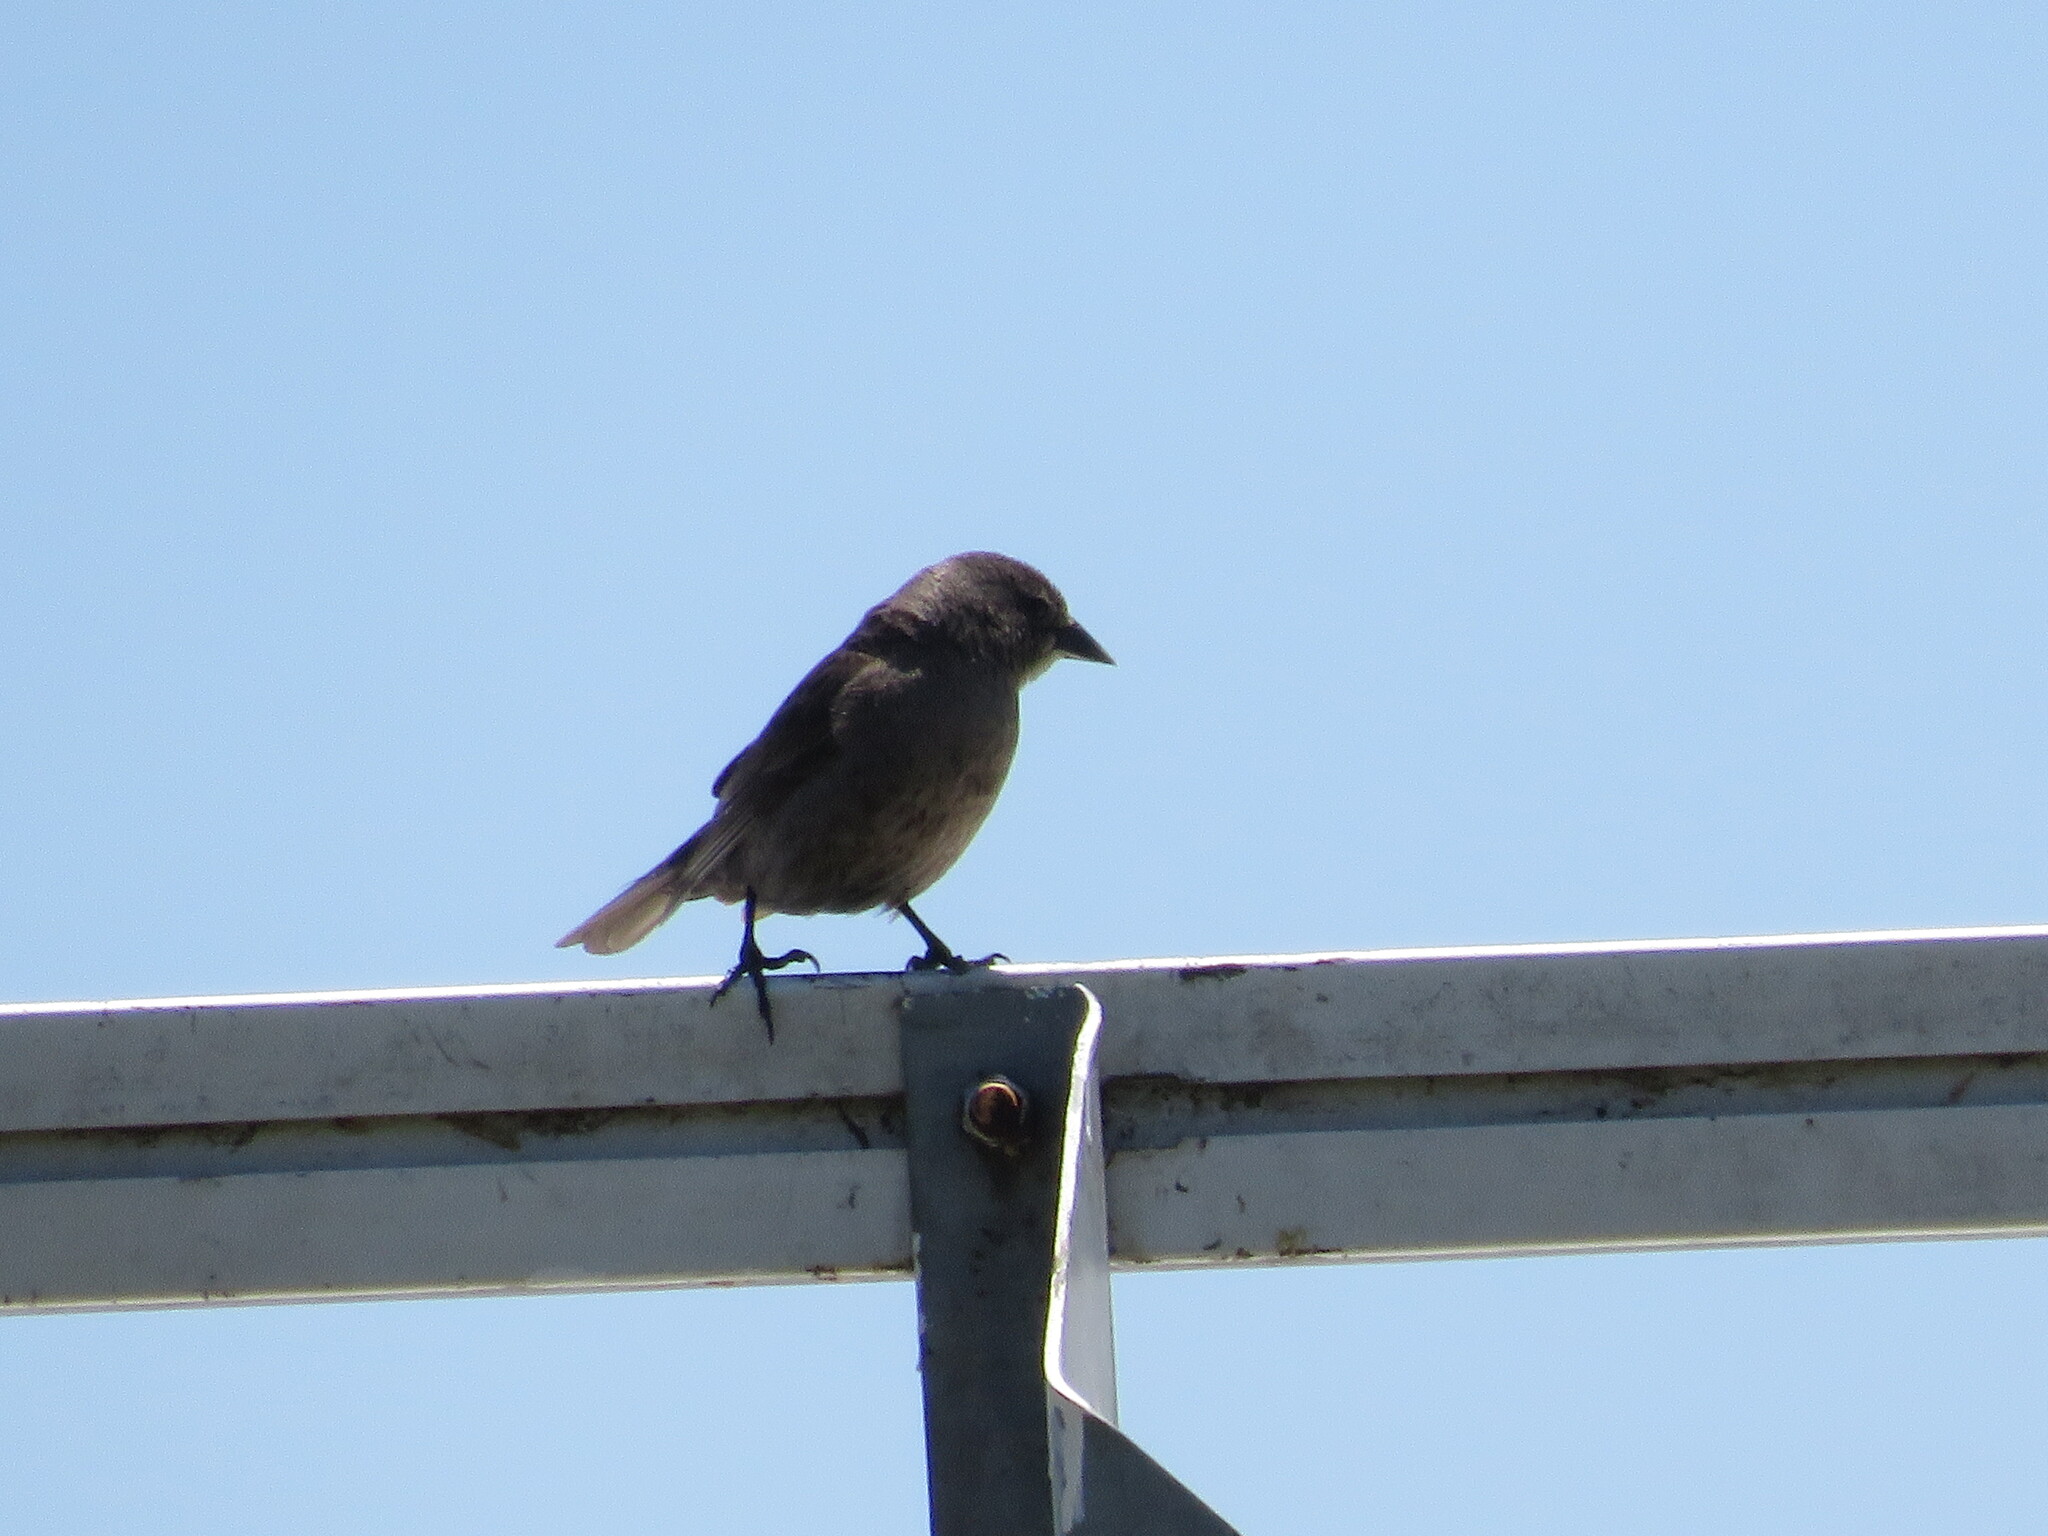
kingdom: Animalia
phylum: Chordata
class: Aves
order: Passeriformes
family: Icteridae
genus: Molothrus
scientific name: Molothrus bonariensis
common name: Shiny cowbird
